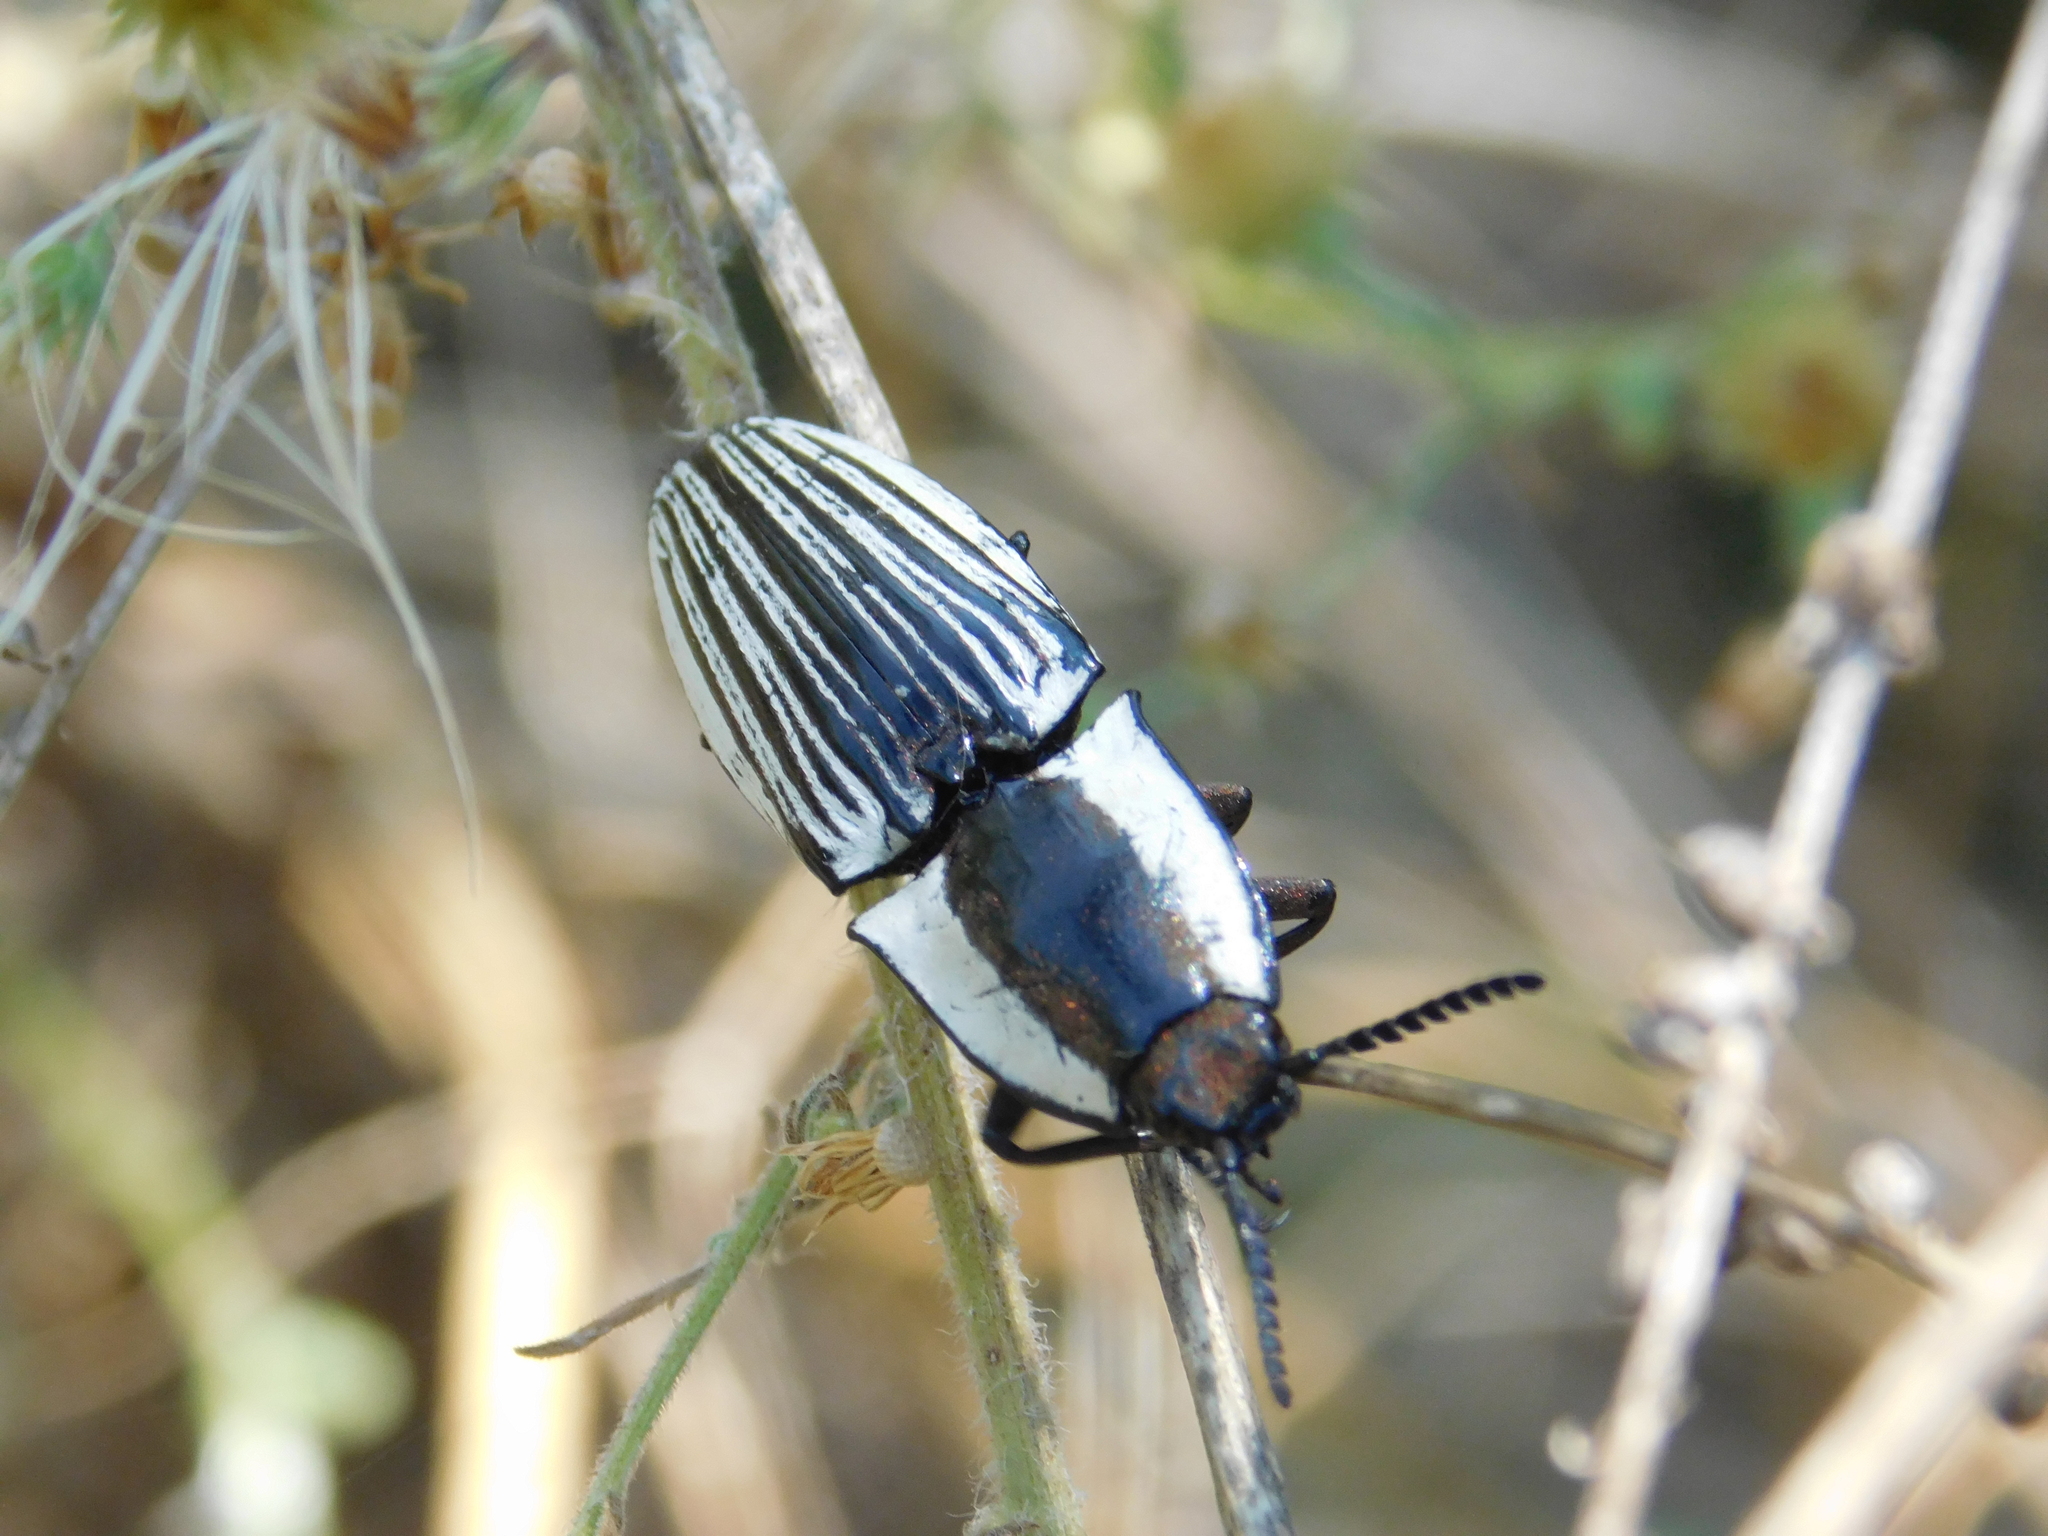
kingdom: Animalia
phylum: Arthropoda
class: Insecta
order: Coleoptera
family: Elateridae
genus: Chalcolepidius
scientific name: Chalcolepidius
